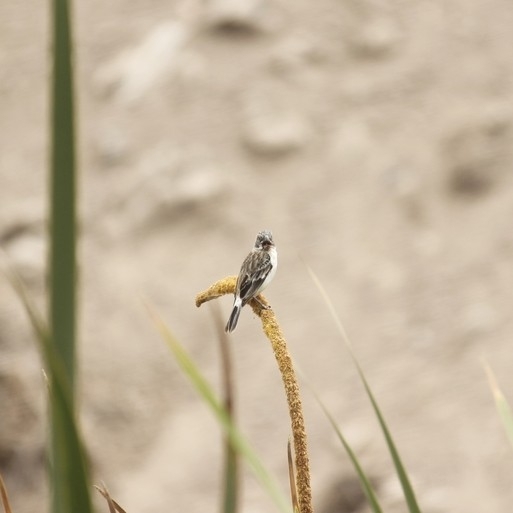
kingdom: Animalia
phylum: Chordata
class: Aves
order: Passeriformes
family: Thraupidae
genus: Sporophila
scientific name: Sporophila telasco
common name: Chestnut-throated seedeater
